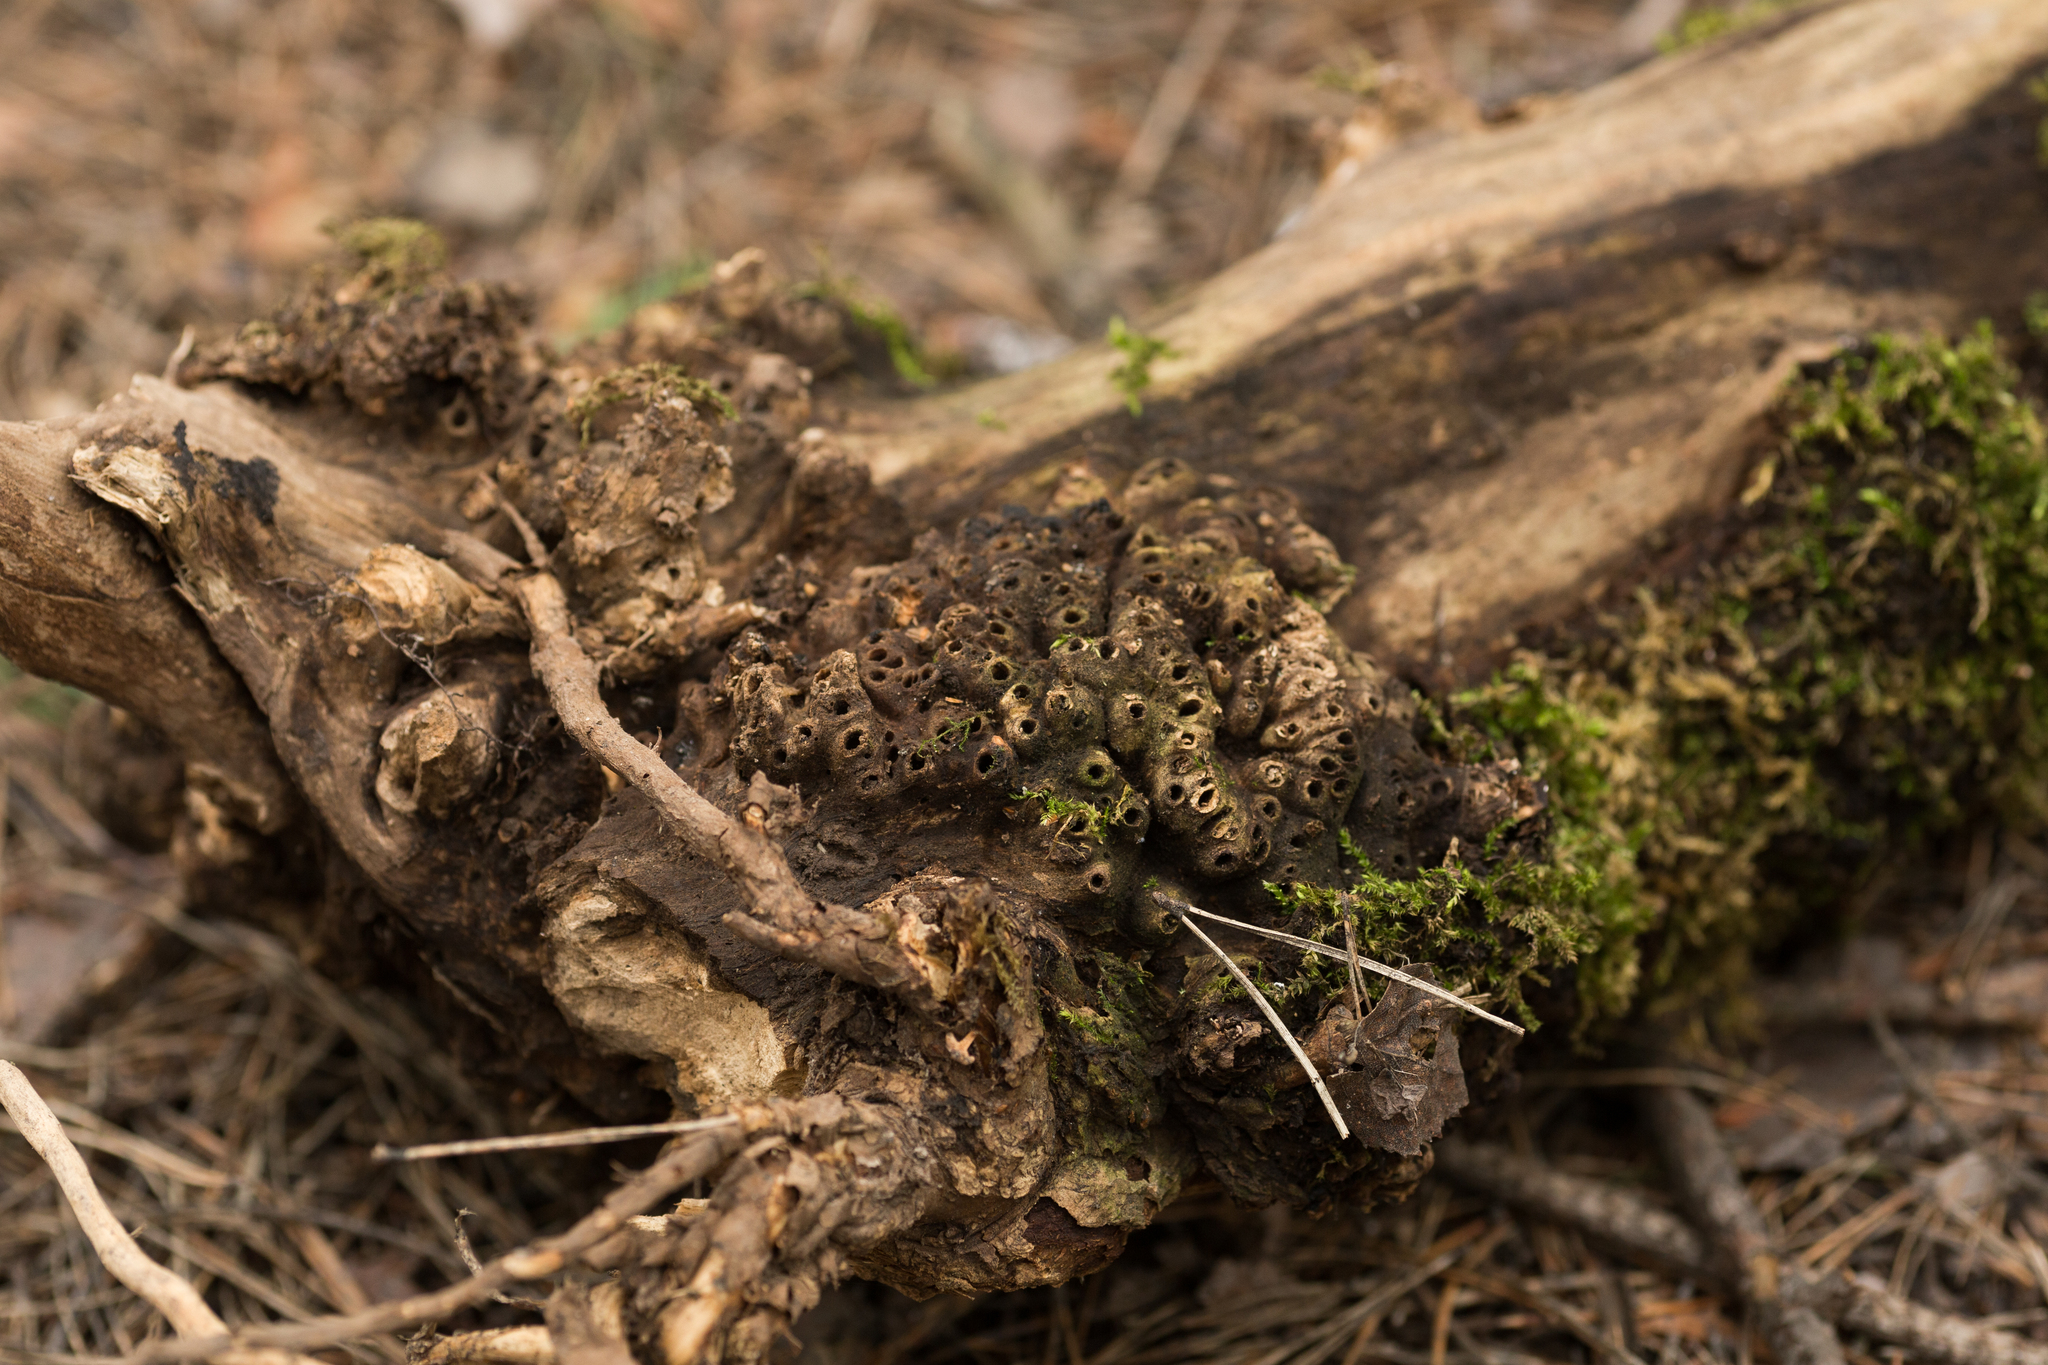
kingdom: Animalia
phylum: Arthropoda
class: Insecta
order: Hymenoptera
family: Cynipidae
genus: Biorhiza
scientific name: Biorhiza pallida
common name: Oak apple
